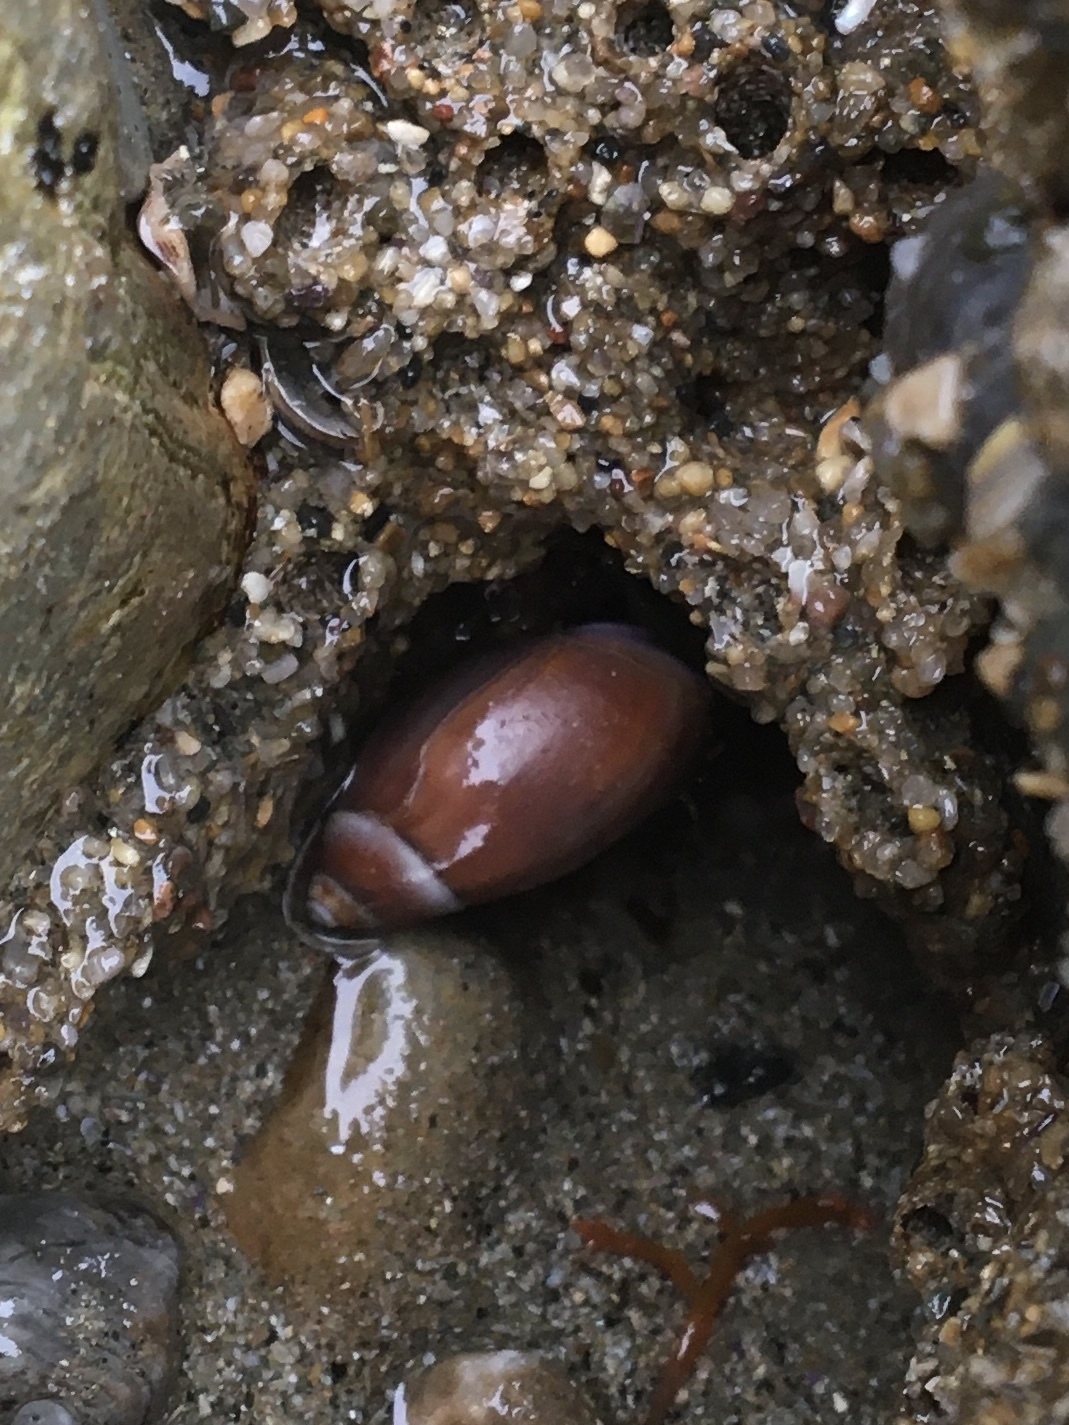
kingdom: Animalia
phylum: Mollusca
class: Gastropoda
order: Neogastropoda
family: Olividae
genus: Callianax
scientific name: Callianax biplicata
